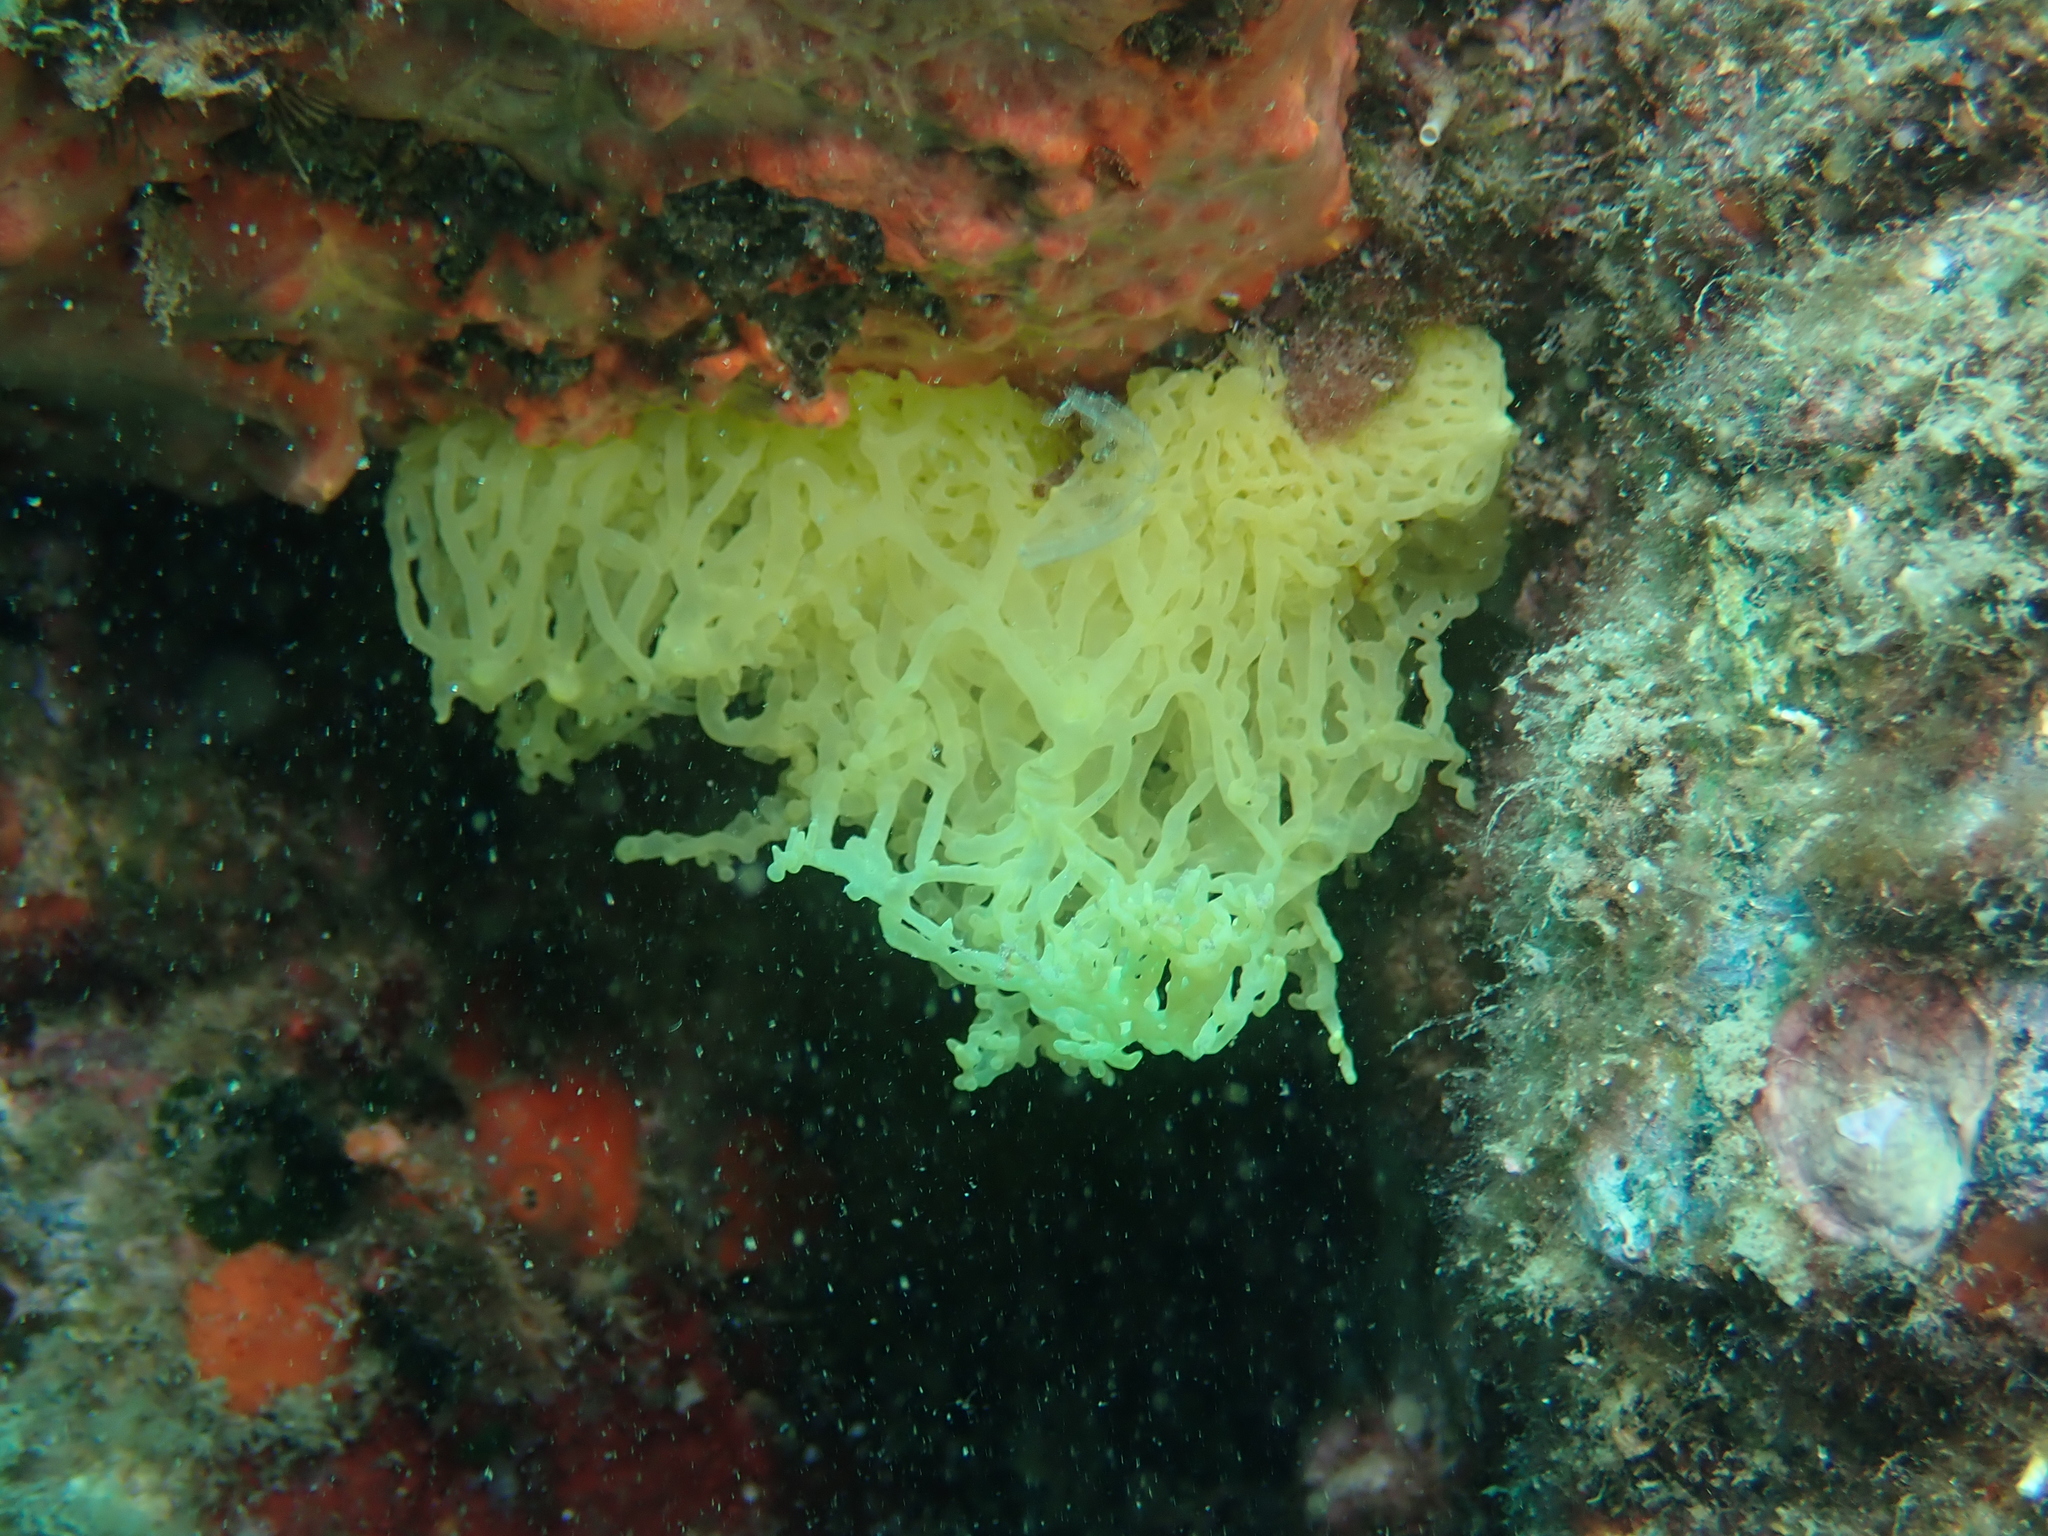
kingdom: Animalia
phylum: Porifera
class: Calcarea
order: Clathrinida
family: Clathrinidae
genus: Clathrina
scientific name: Clathrina clathrus
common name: Yellow clathrina
